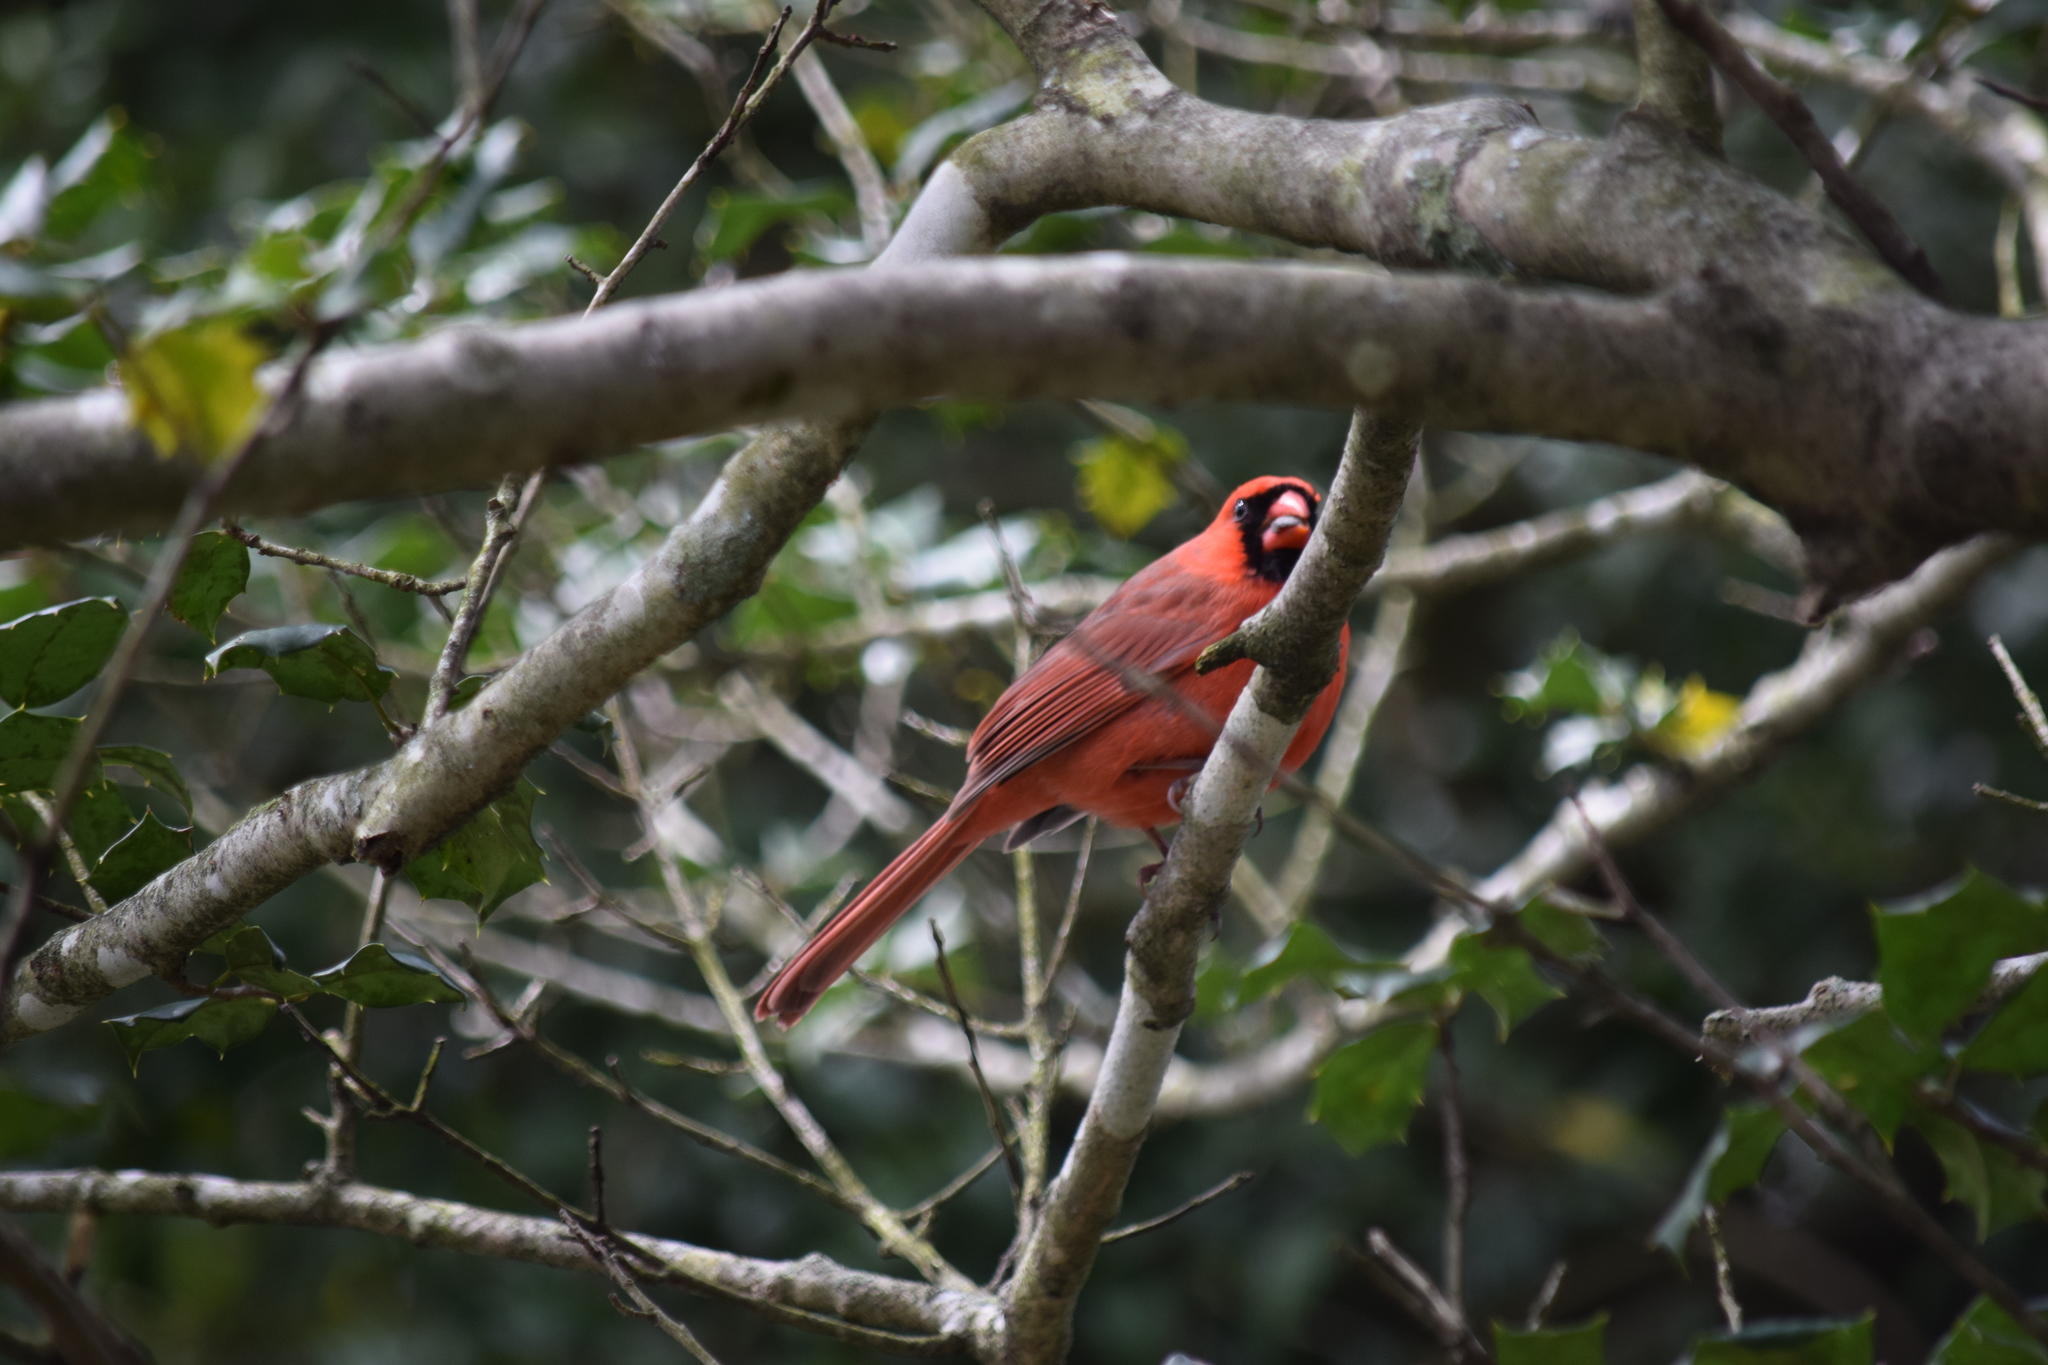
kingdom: Animalia
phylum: Chordata
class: Aves
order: Passeriformes
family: Cardinalidae
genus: Cardinalis
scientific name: Cardinalis cardinalis
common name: Northern cardinal
